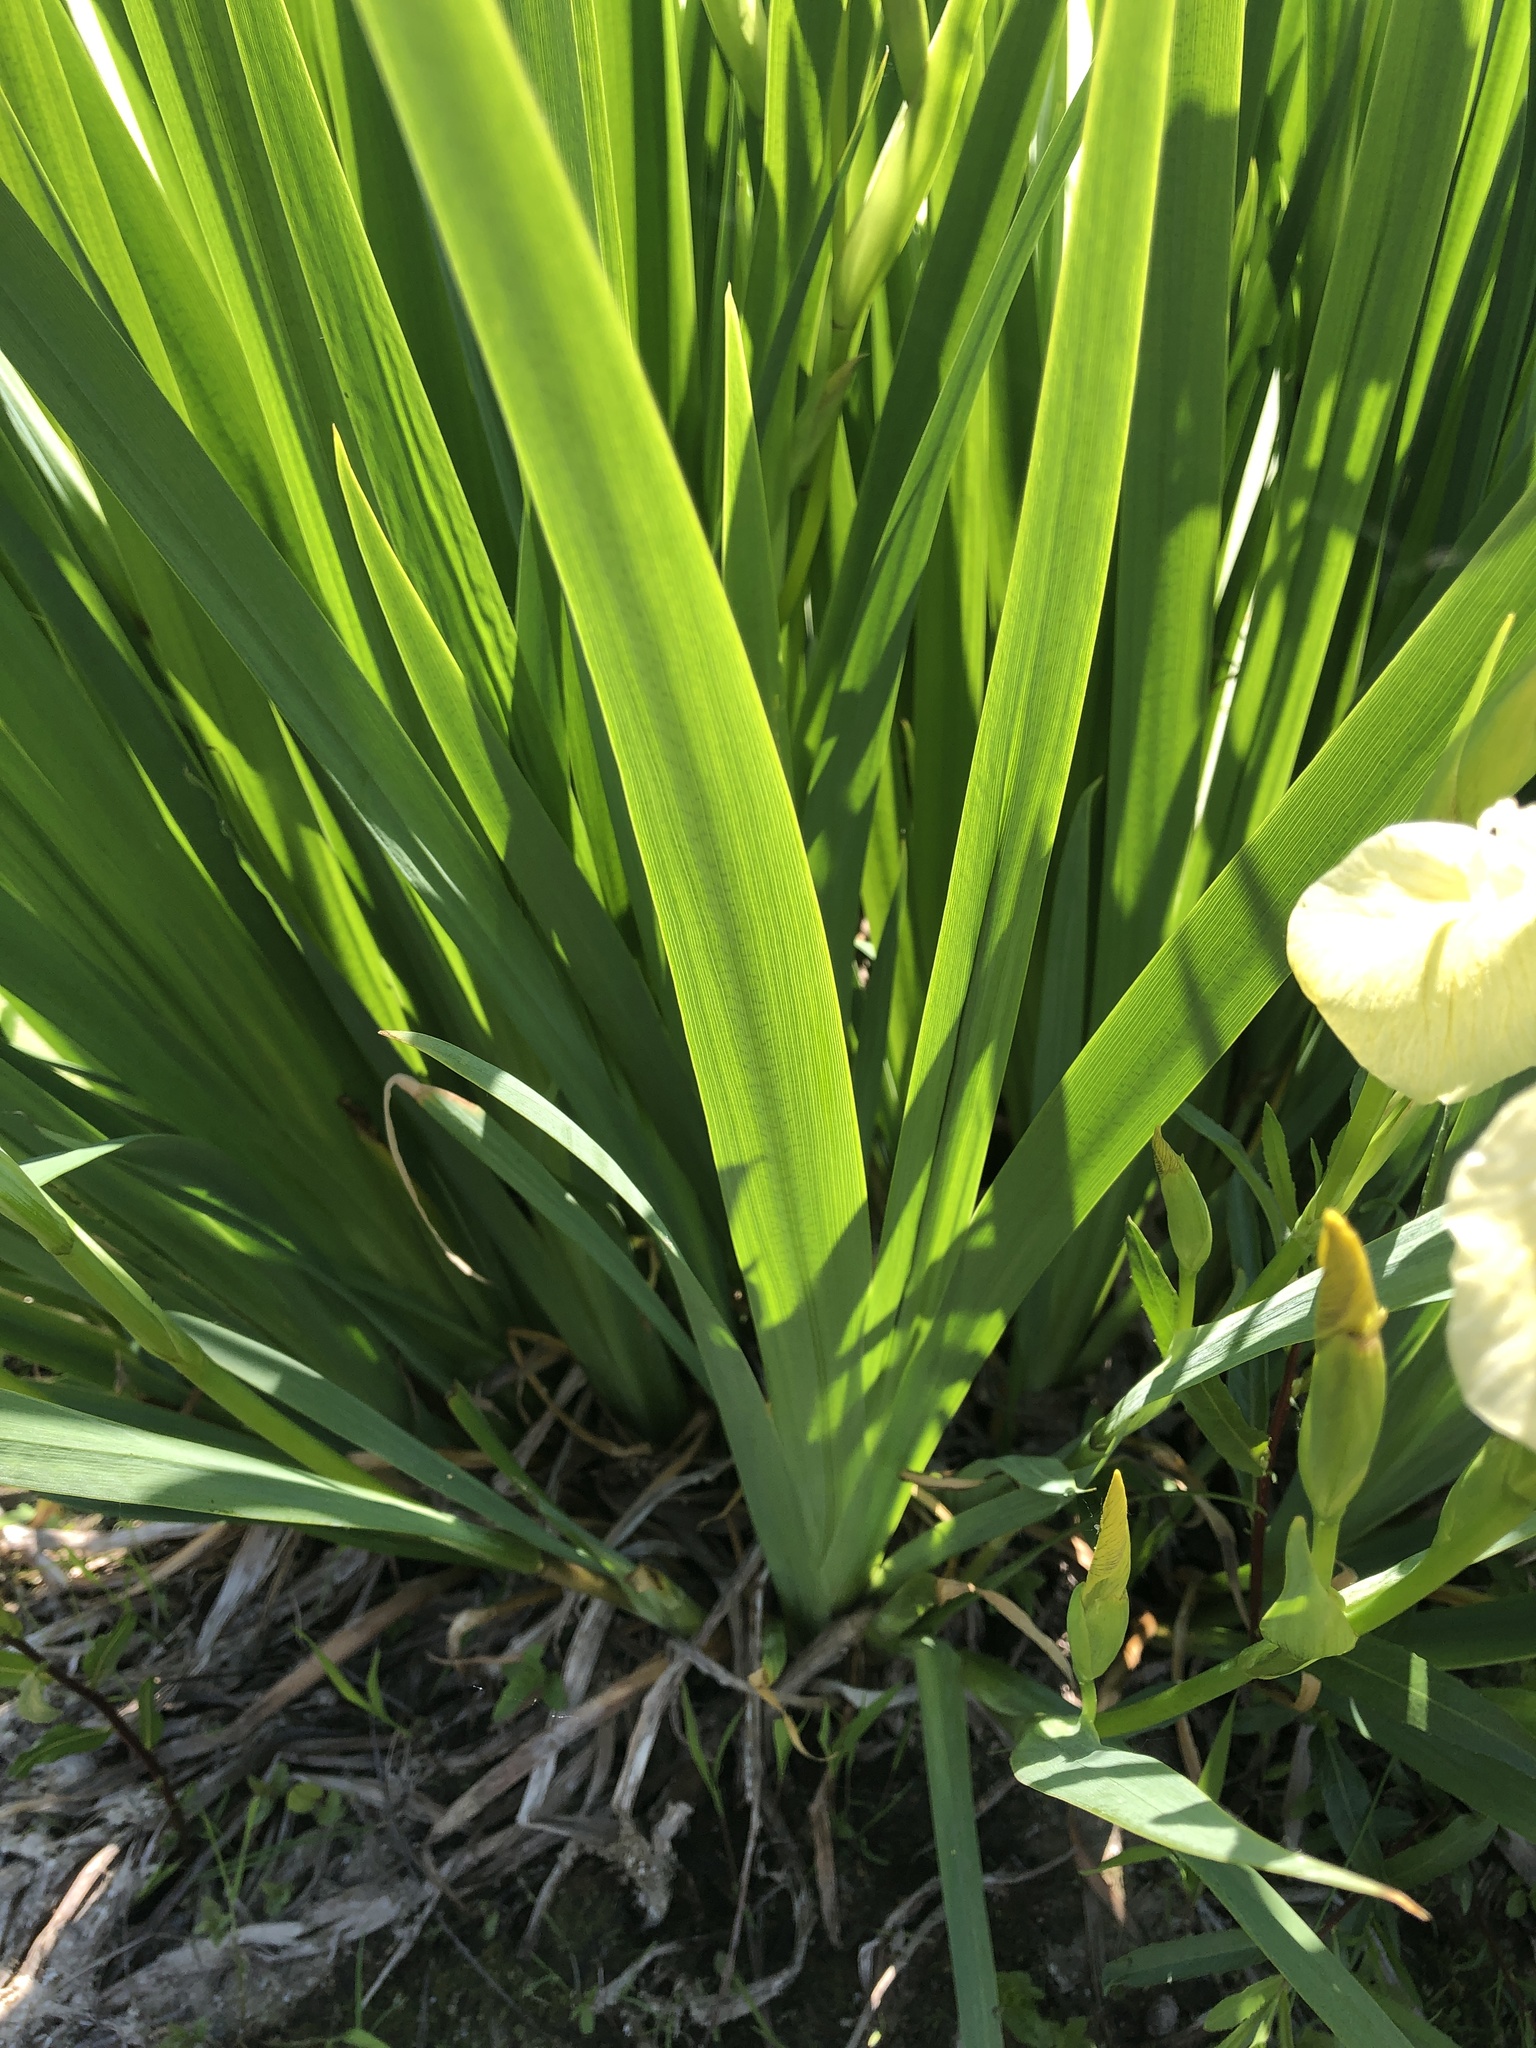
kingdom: Plantae
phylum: Tracheophyta
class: Liliopsida
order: Asparagales
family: Iridaceae
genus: Iris
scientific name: Iris pseudacorus
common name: Yellow flag
